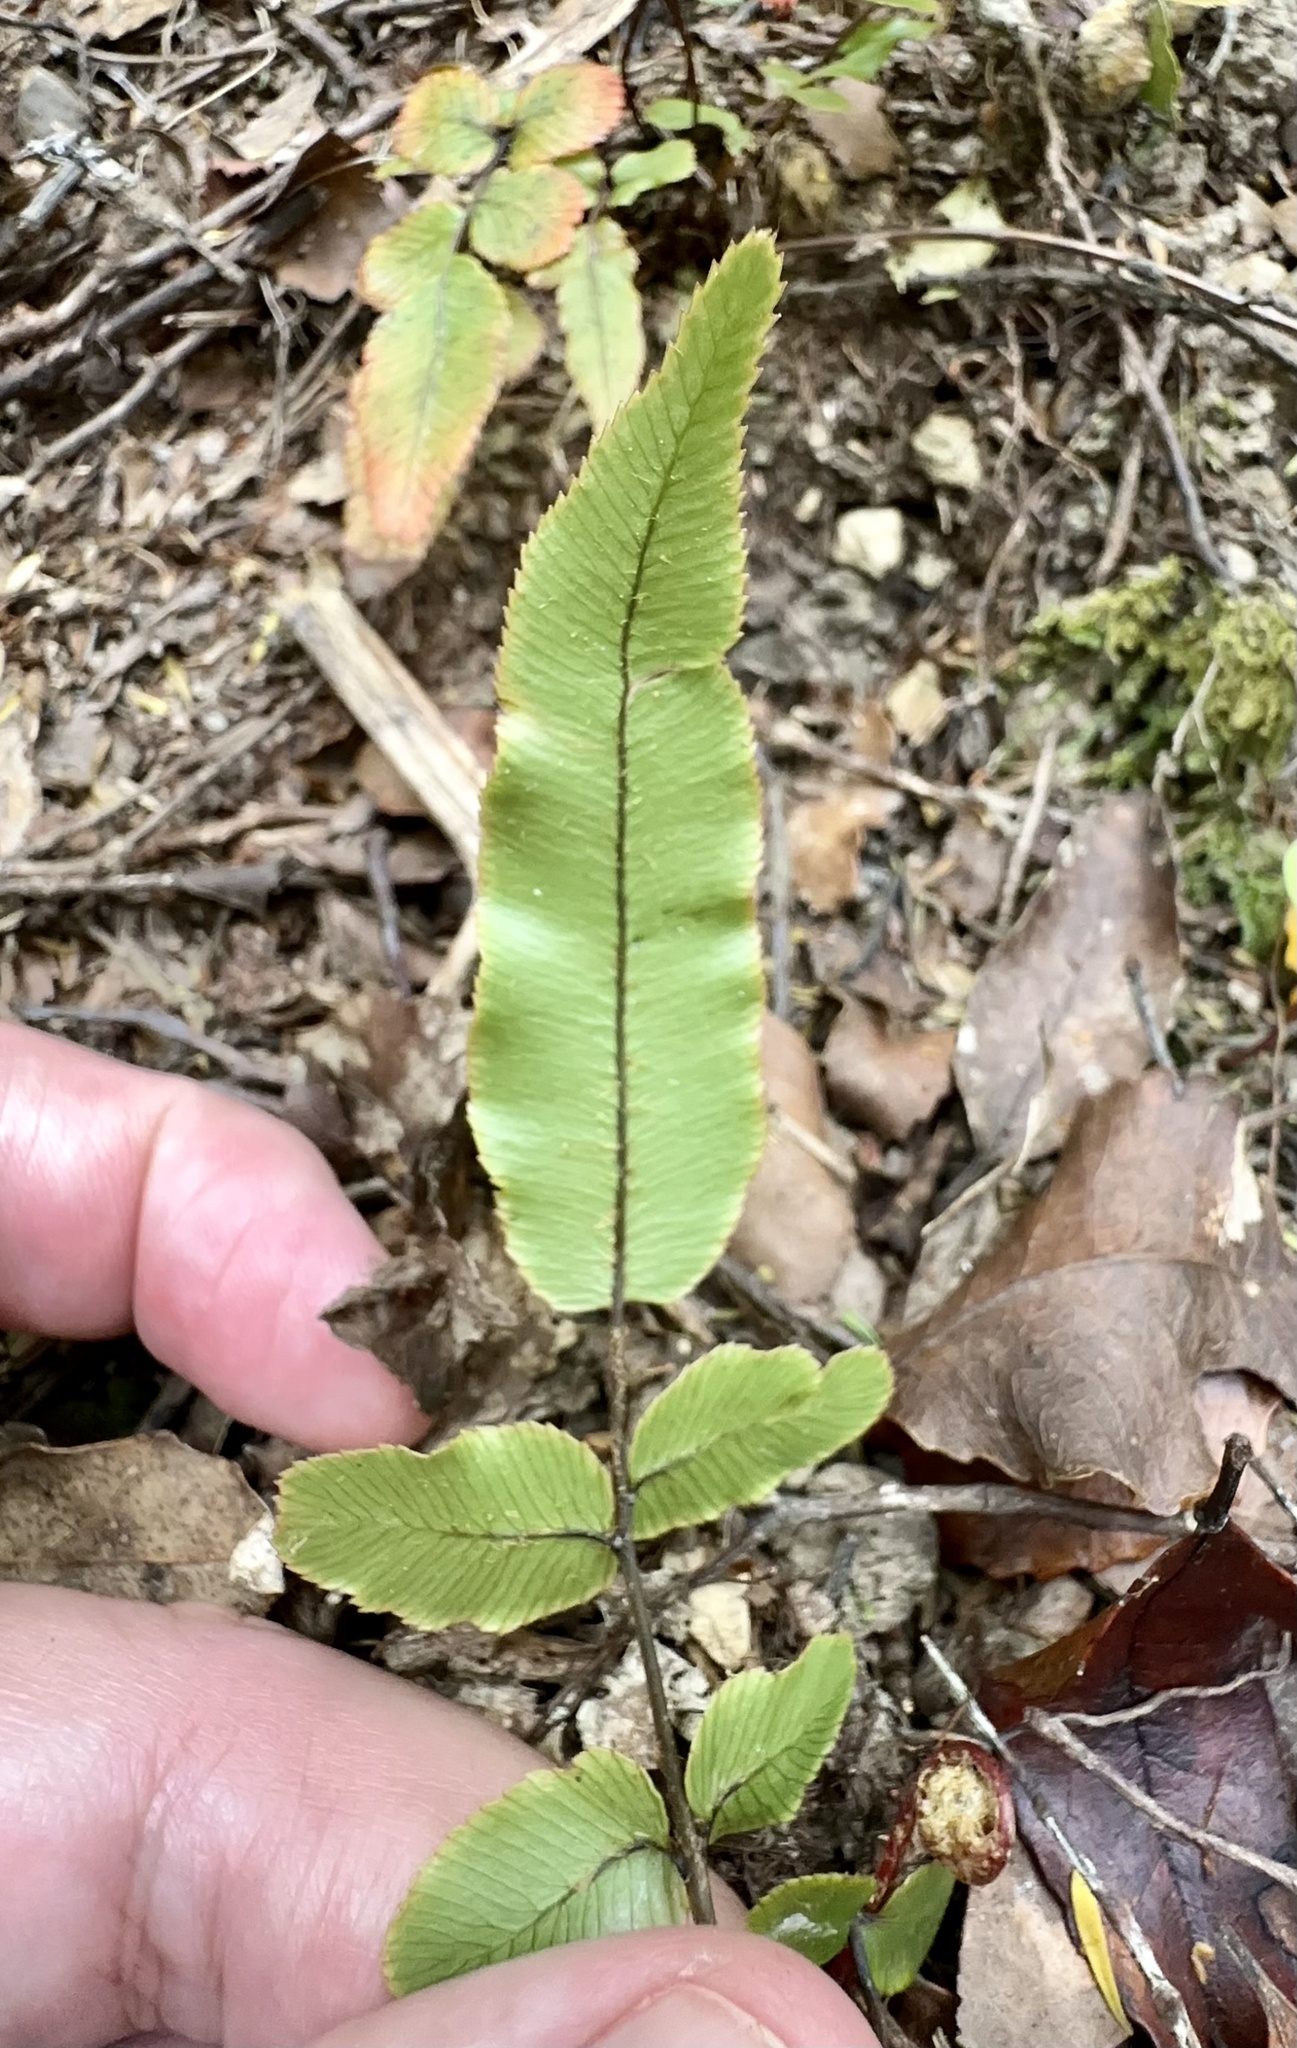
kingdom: Plantae
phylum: Tracheophyta
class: Polypodiopsida
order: Polypodiales
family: Blechnaceae
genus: Parablechnum
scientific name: Parablechnum procerum
